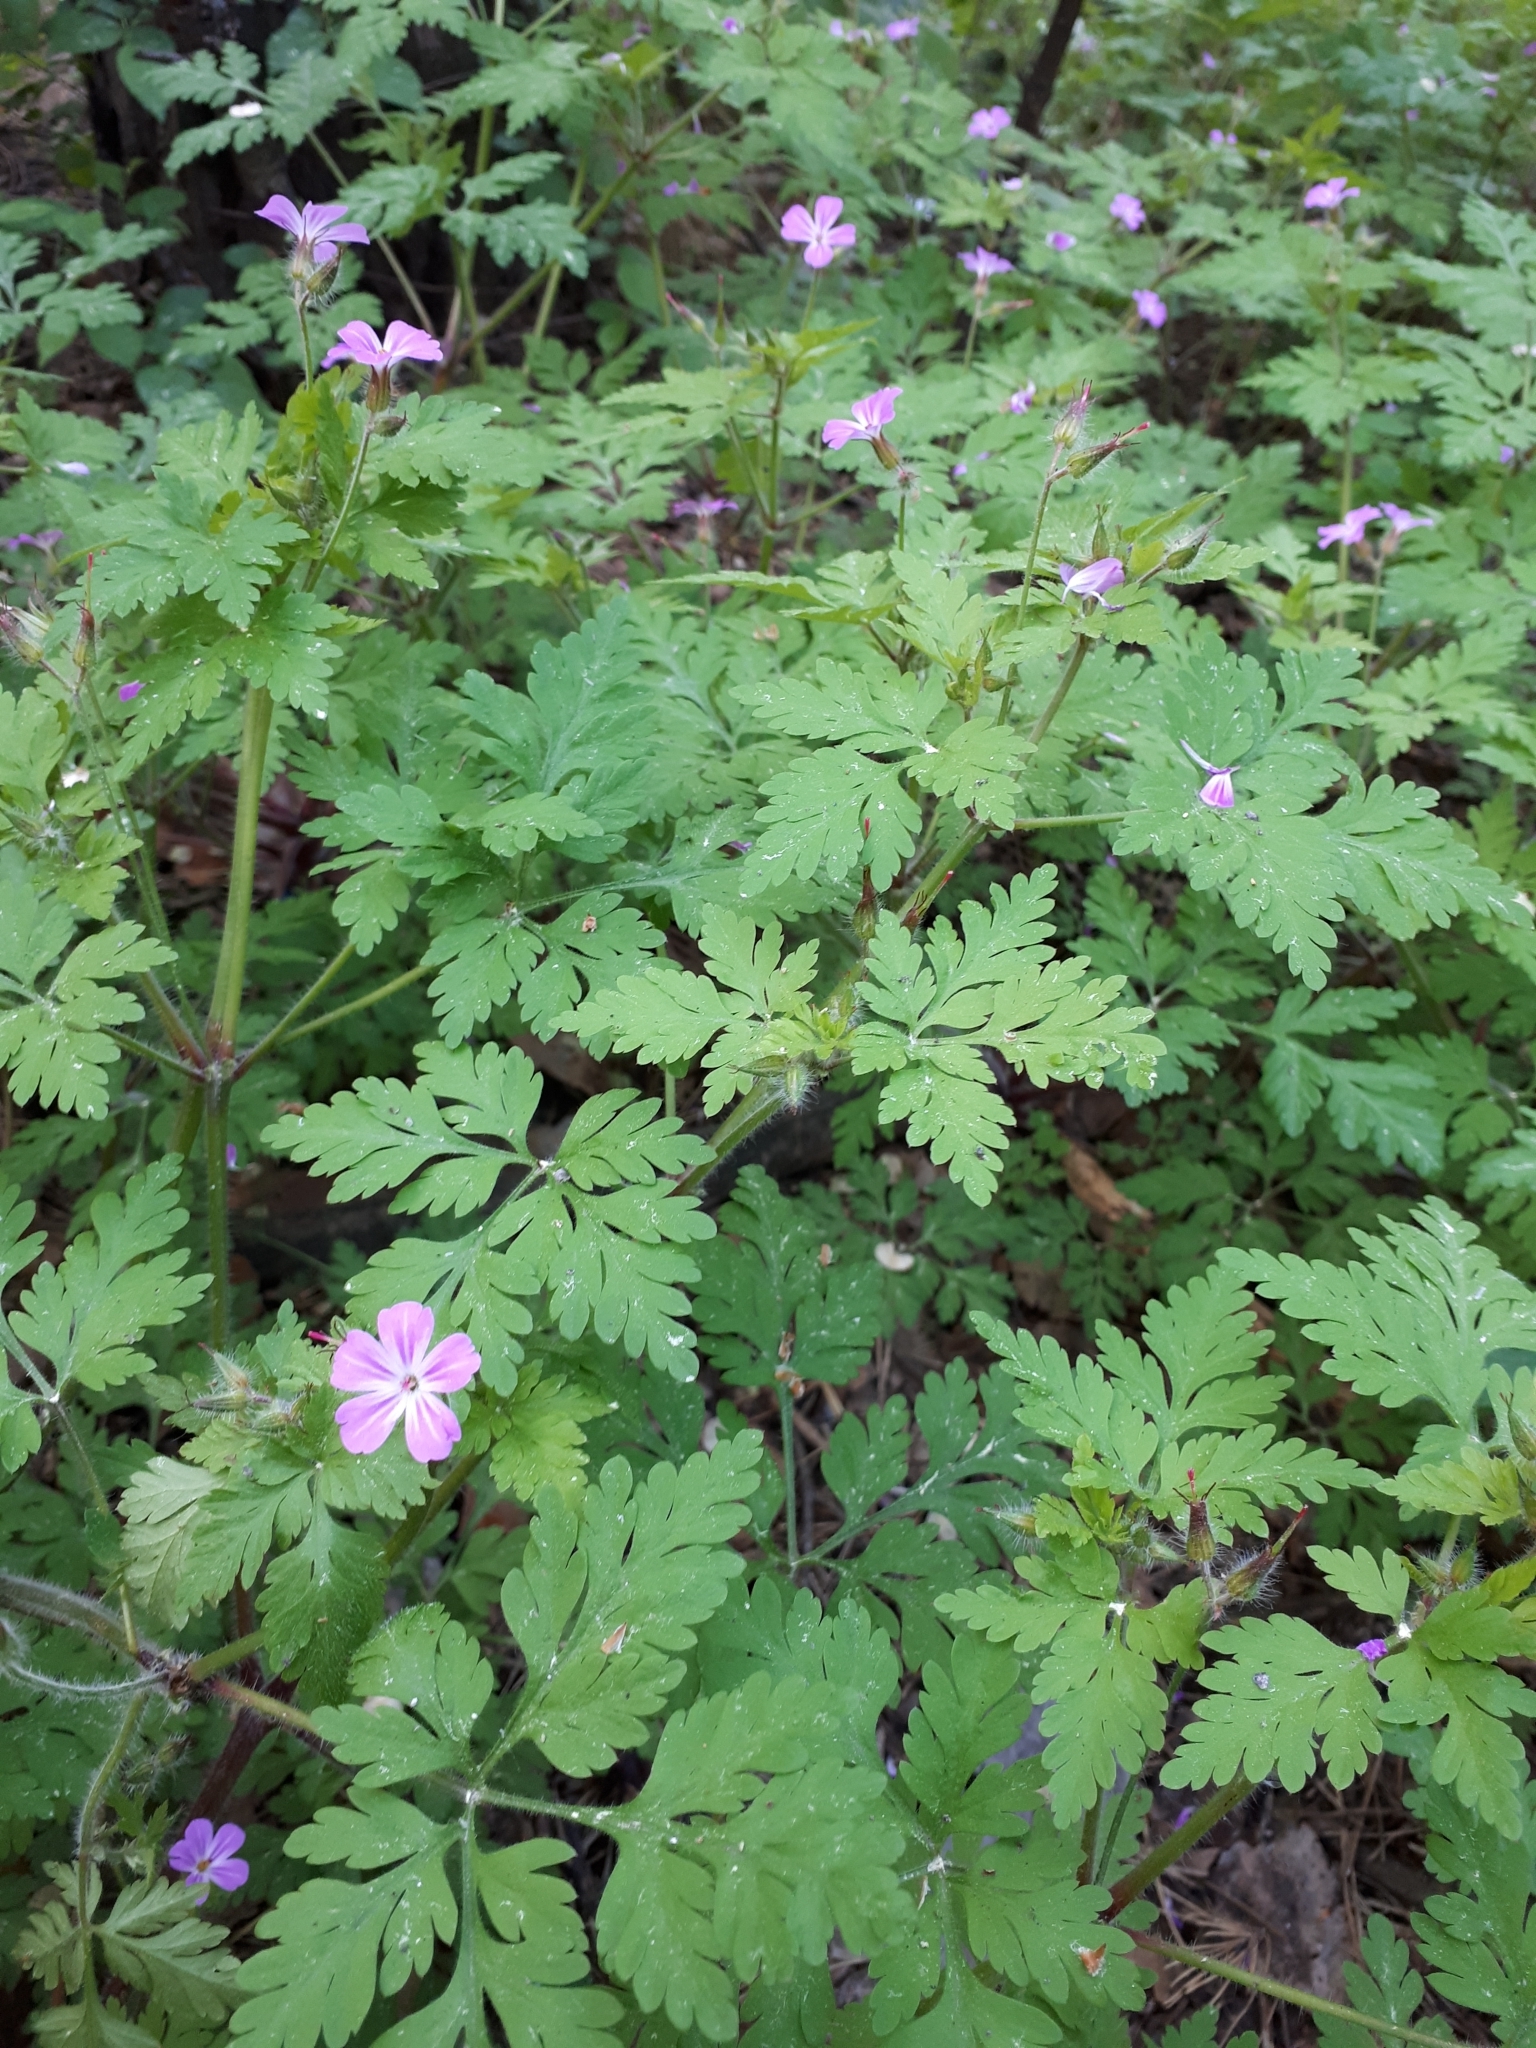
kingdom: Plantae
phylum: Tracheophyta
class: Magnoliopsida
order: Geraniales
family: Geraniaceae
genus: Geranium
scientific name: Geranium robertianum
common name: Herb-robert
